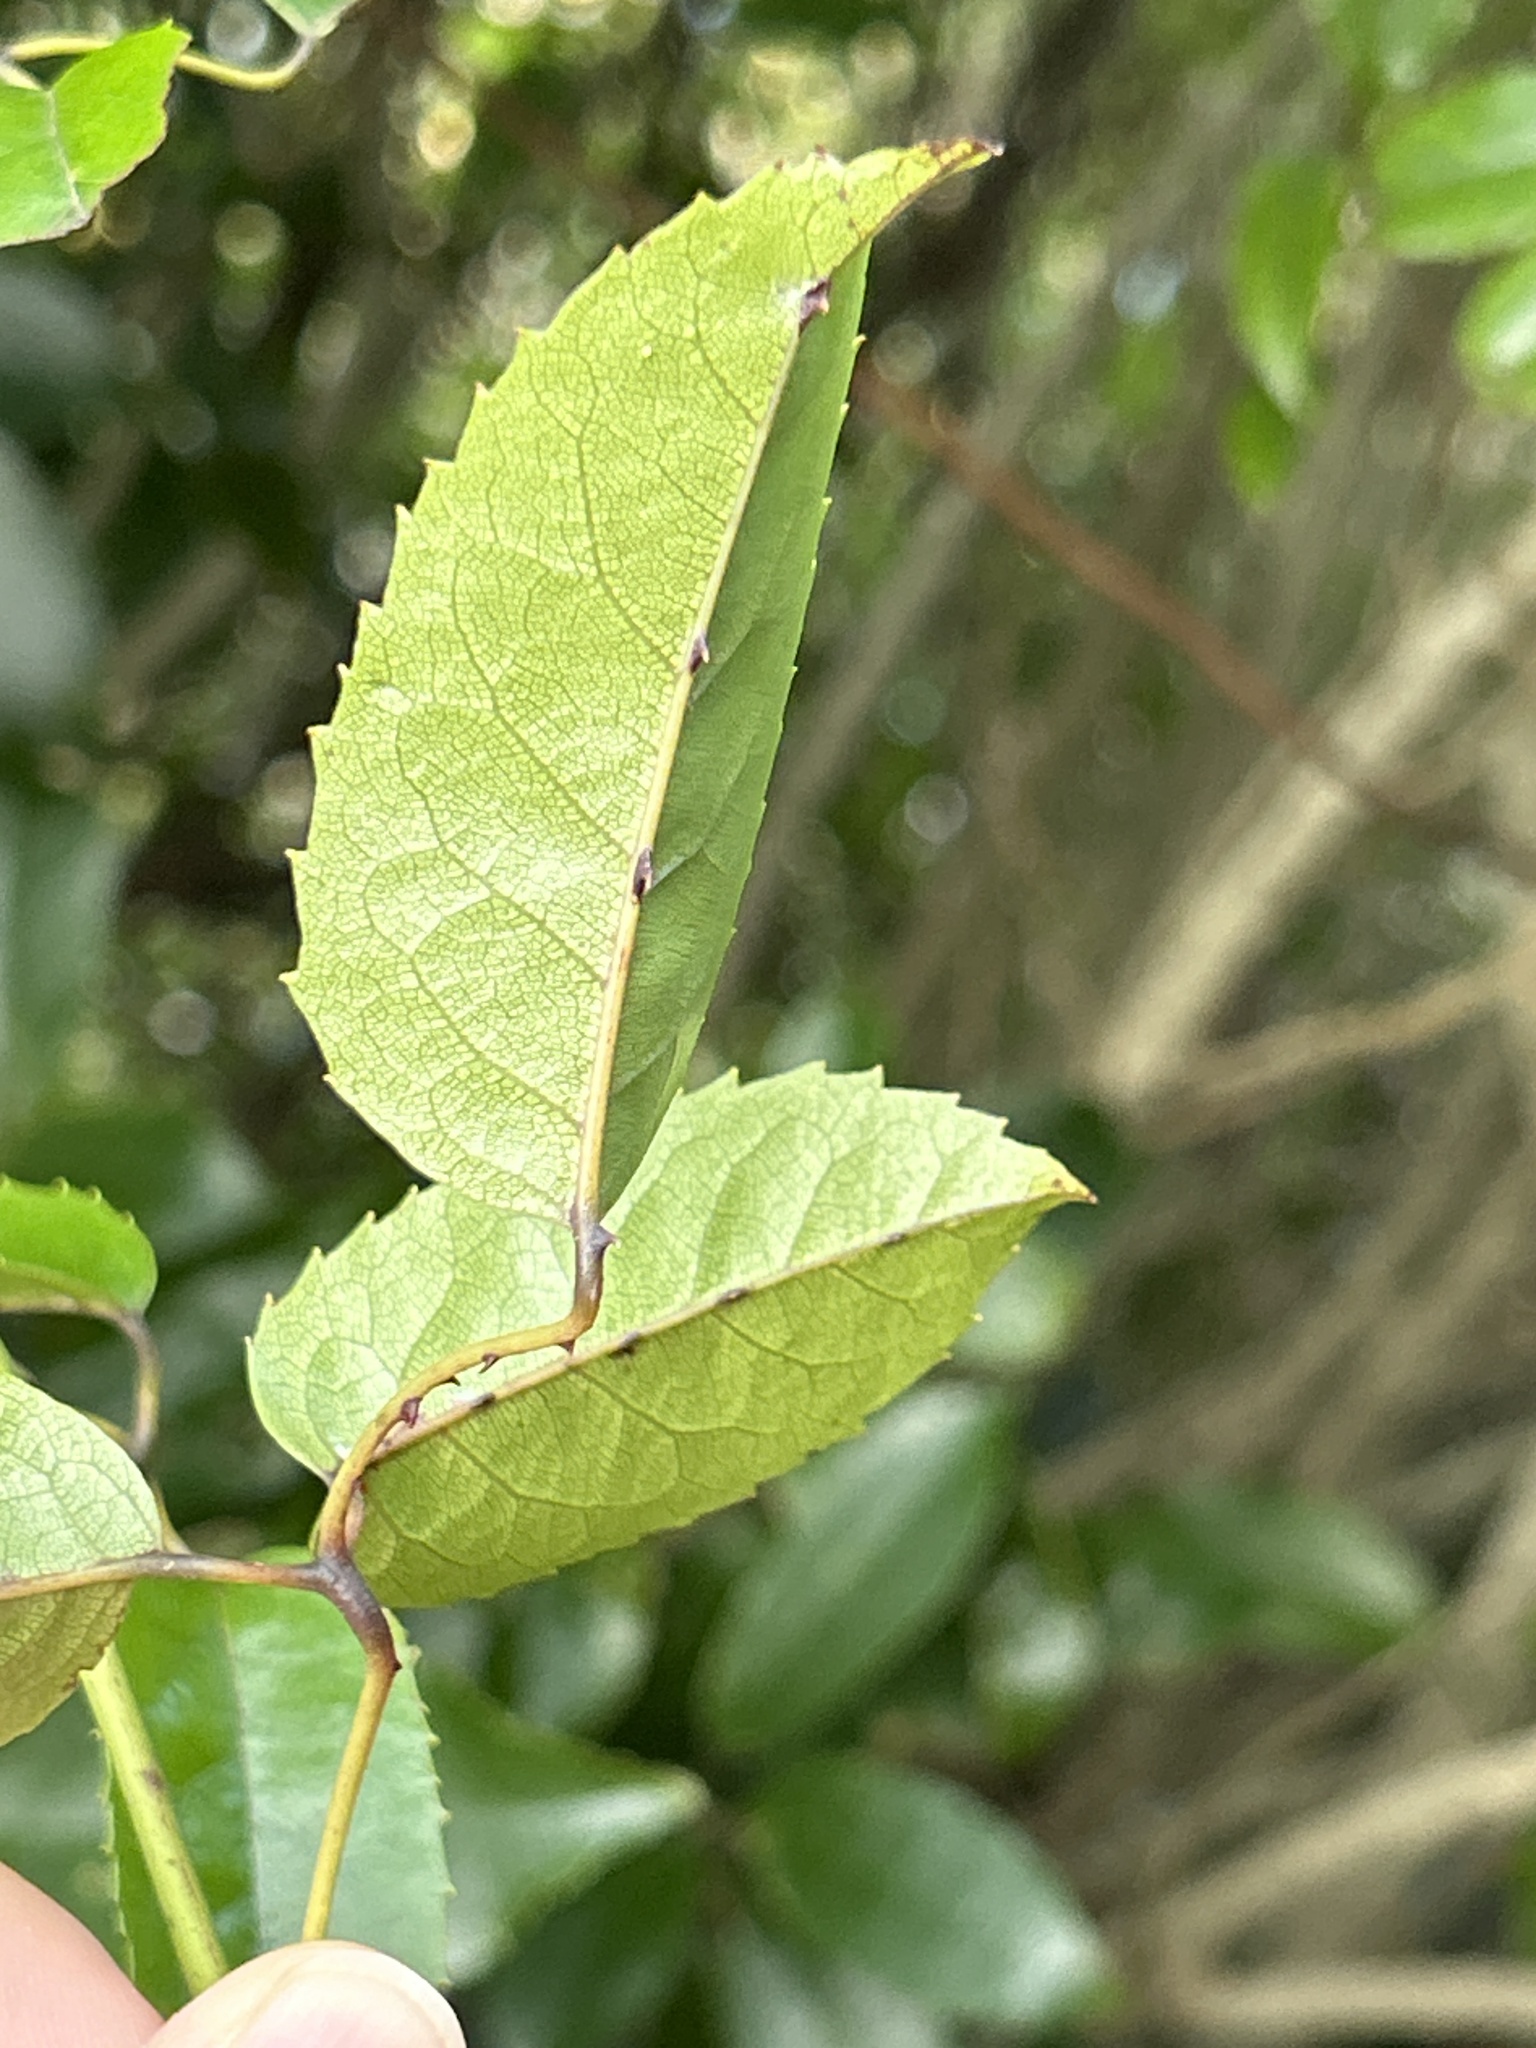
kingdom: Plantae
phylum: Tracheophyta
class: Magnoliopsida
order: Rosales
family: Rosaceae
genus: Rubus
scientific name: Rubus cissoides
